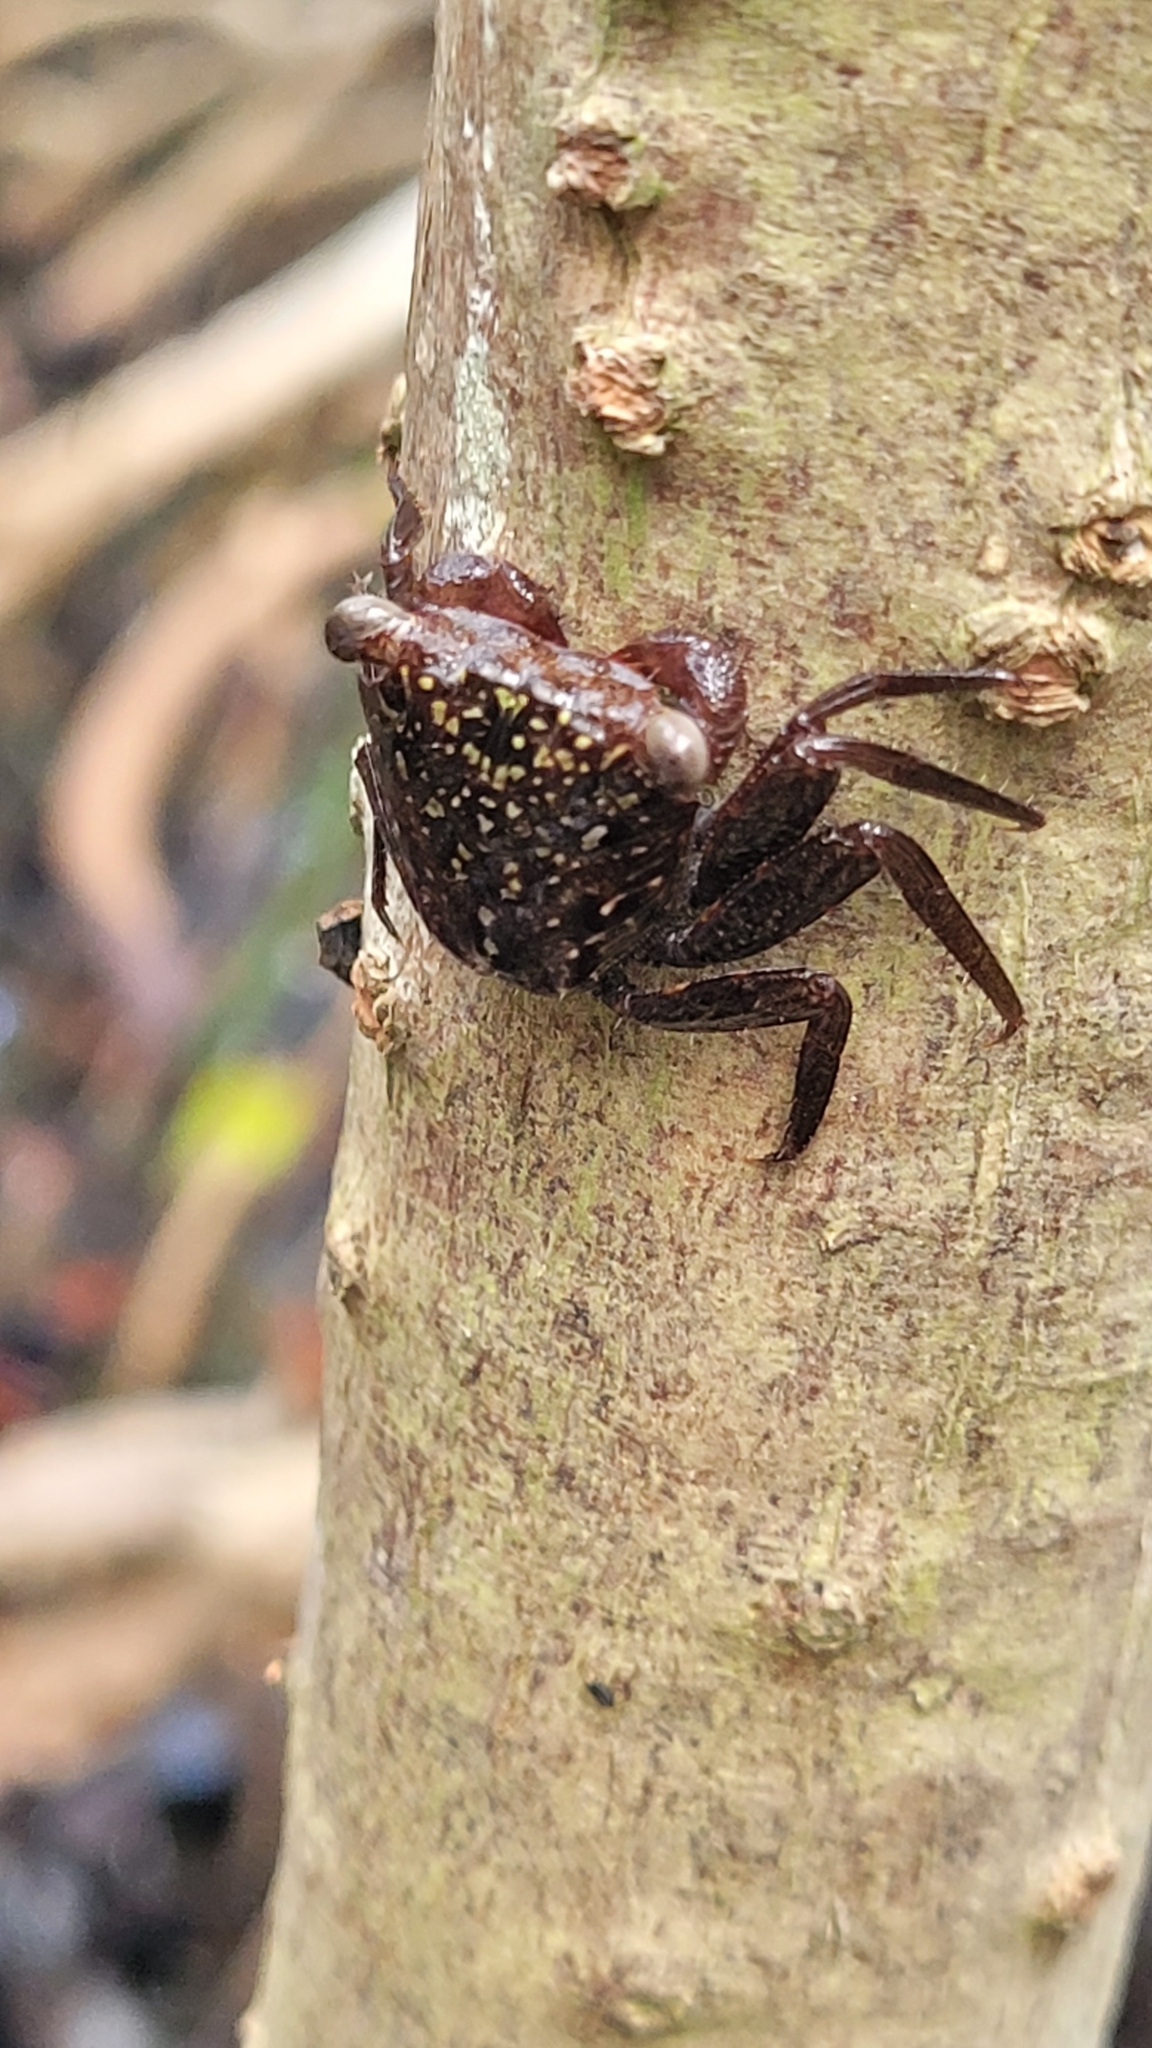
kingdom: Animalia
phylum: Arthropoda
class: Malacostraca
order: Decapoda
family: Sesarmidae
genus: Aratus
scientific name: Aratus pisonii
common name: Mangrove crab
